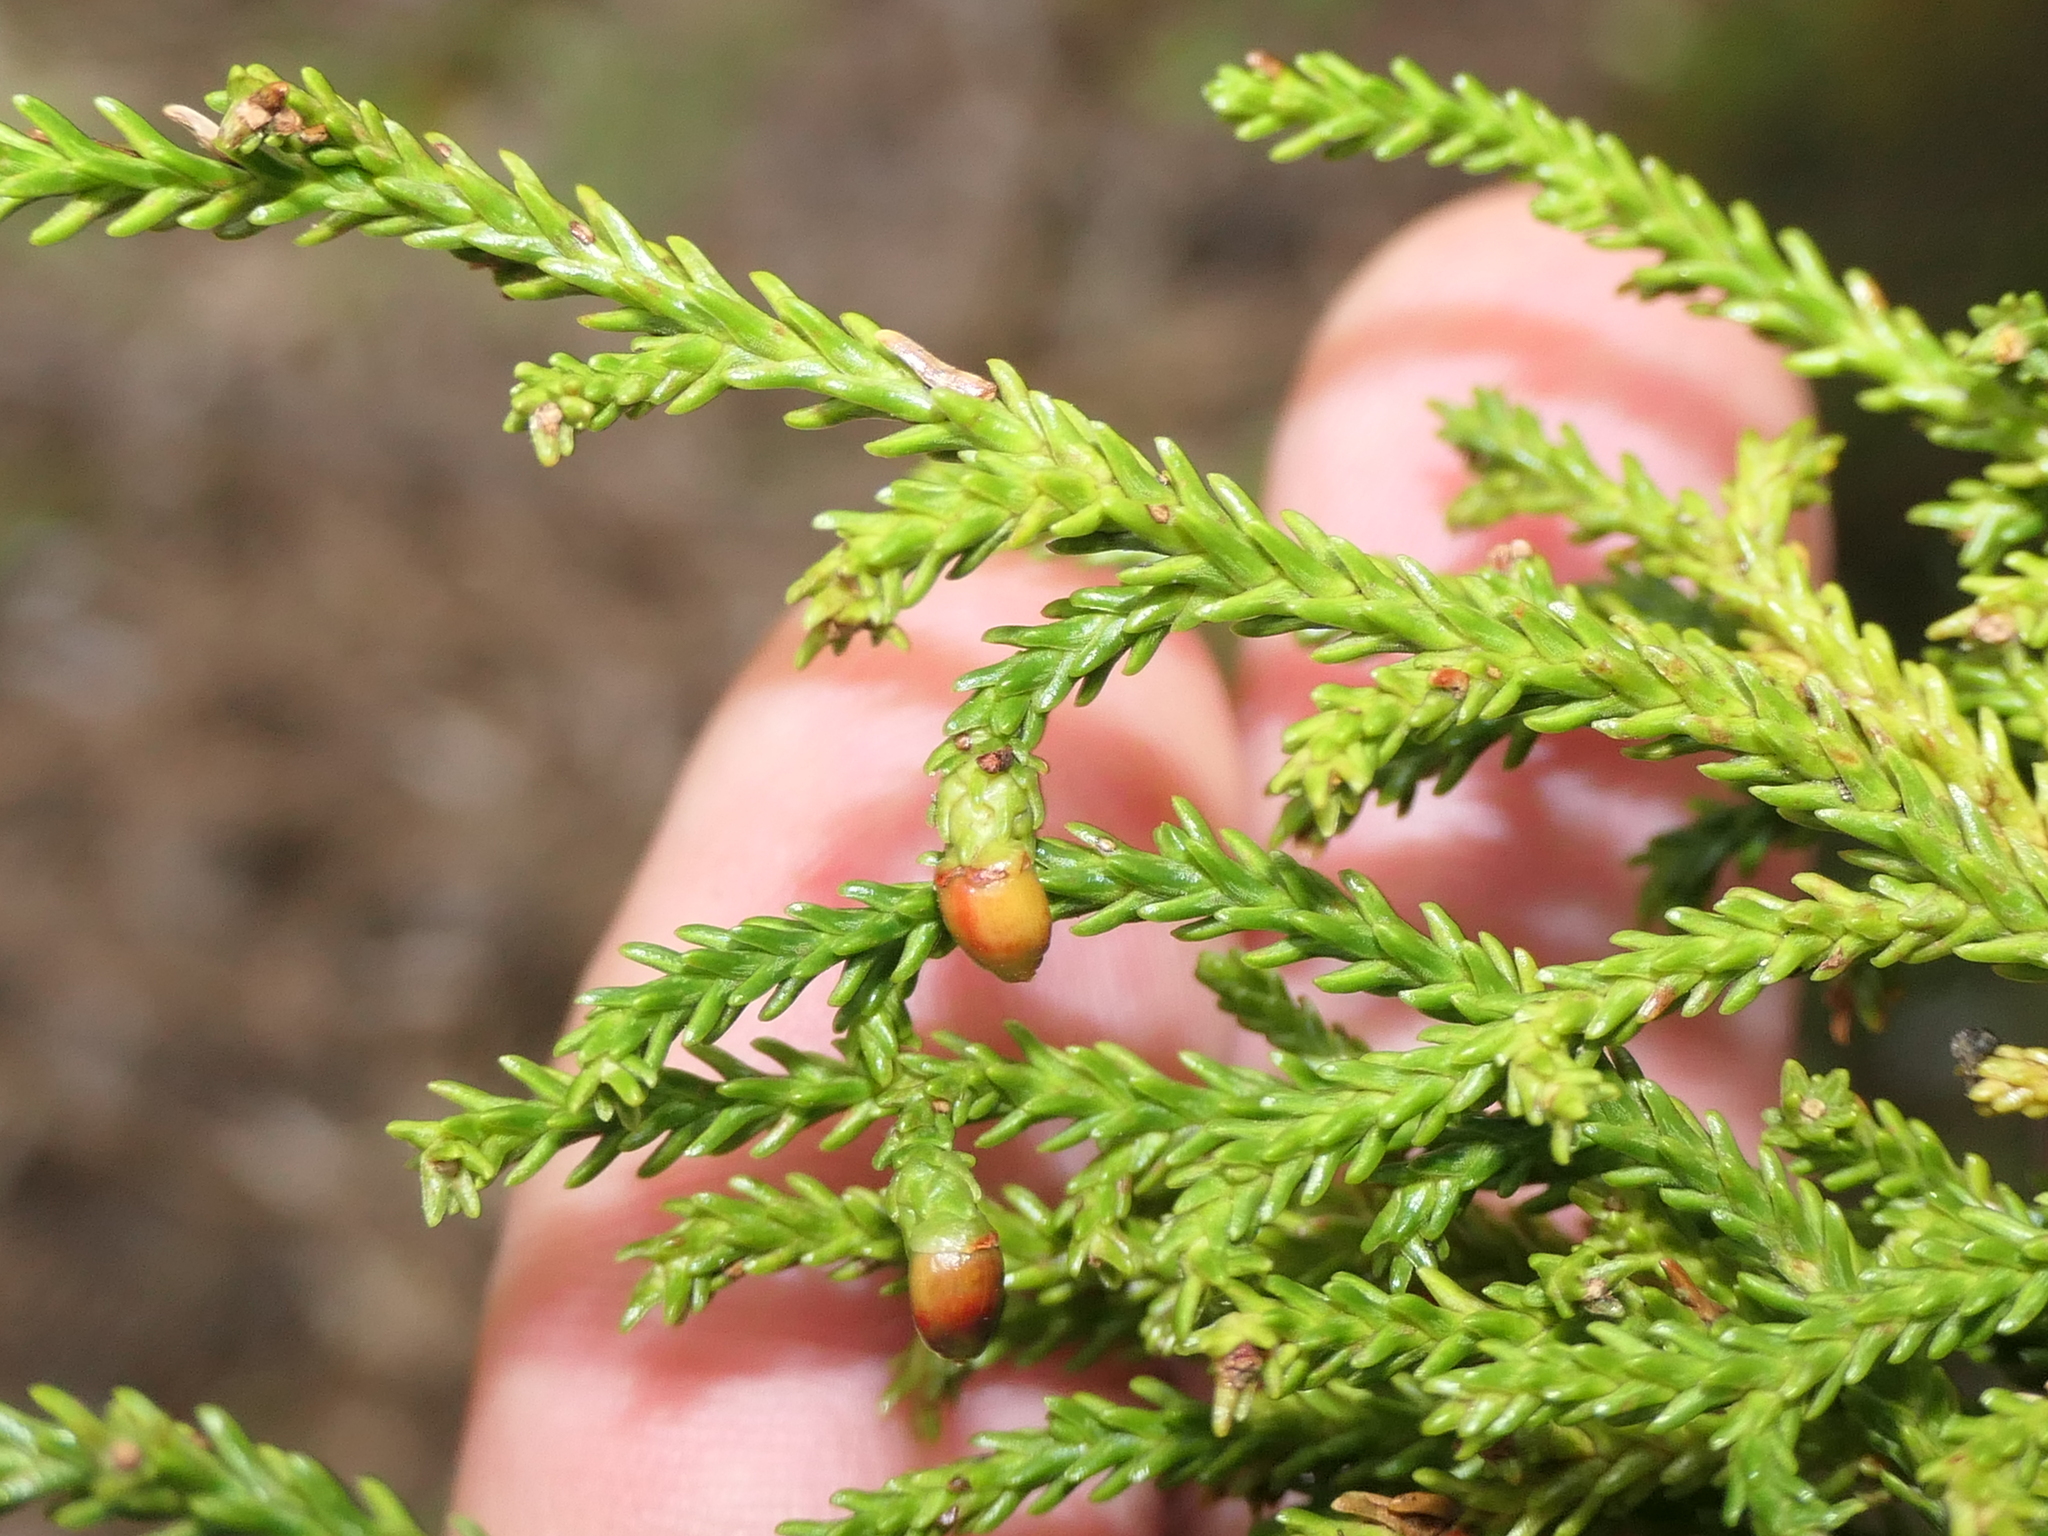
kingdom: Plantae
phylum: Tracheophyta
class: Pinopsida
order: Pinales
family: Podocarpaceae
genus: Dacrydium
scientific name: Dacrydium cupressinum
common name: Red pine
